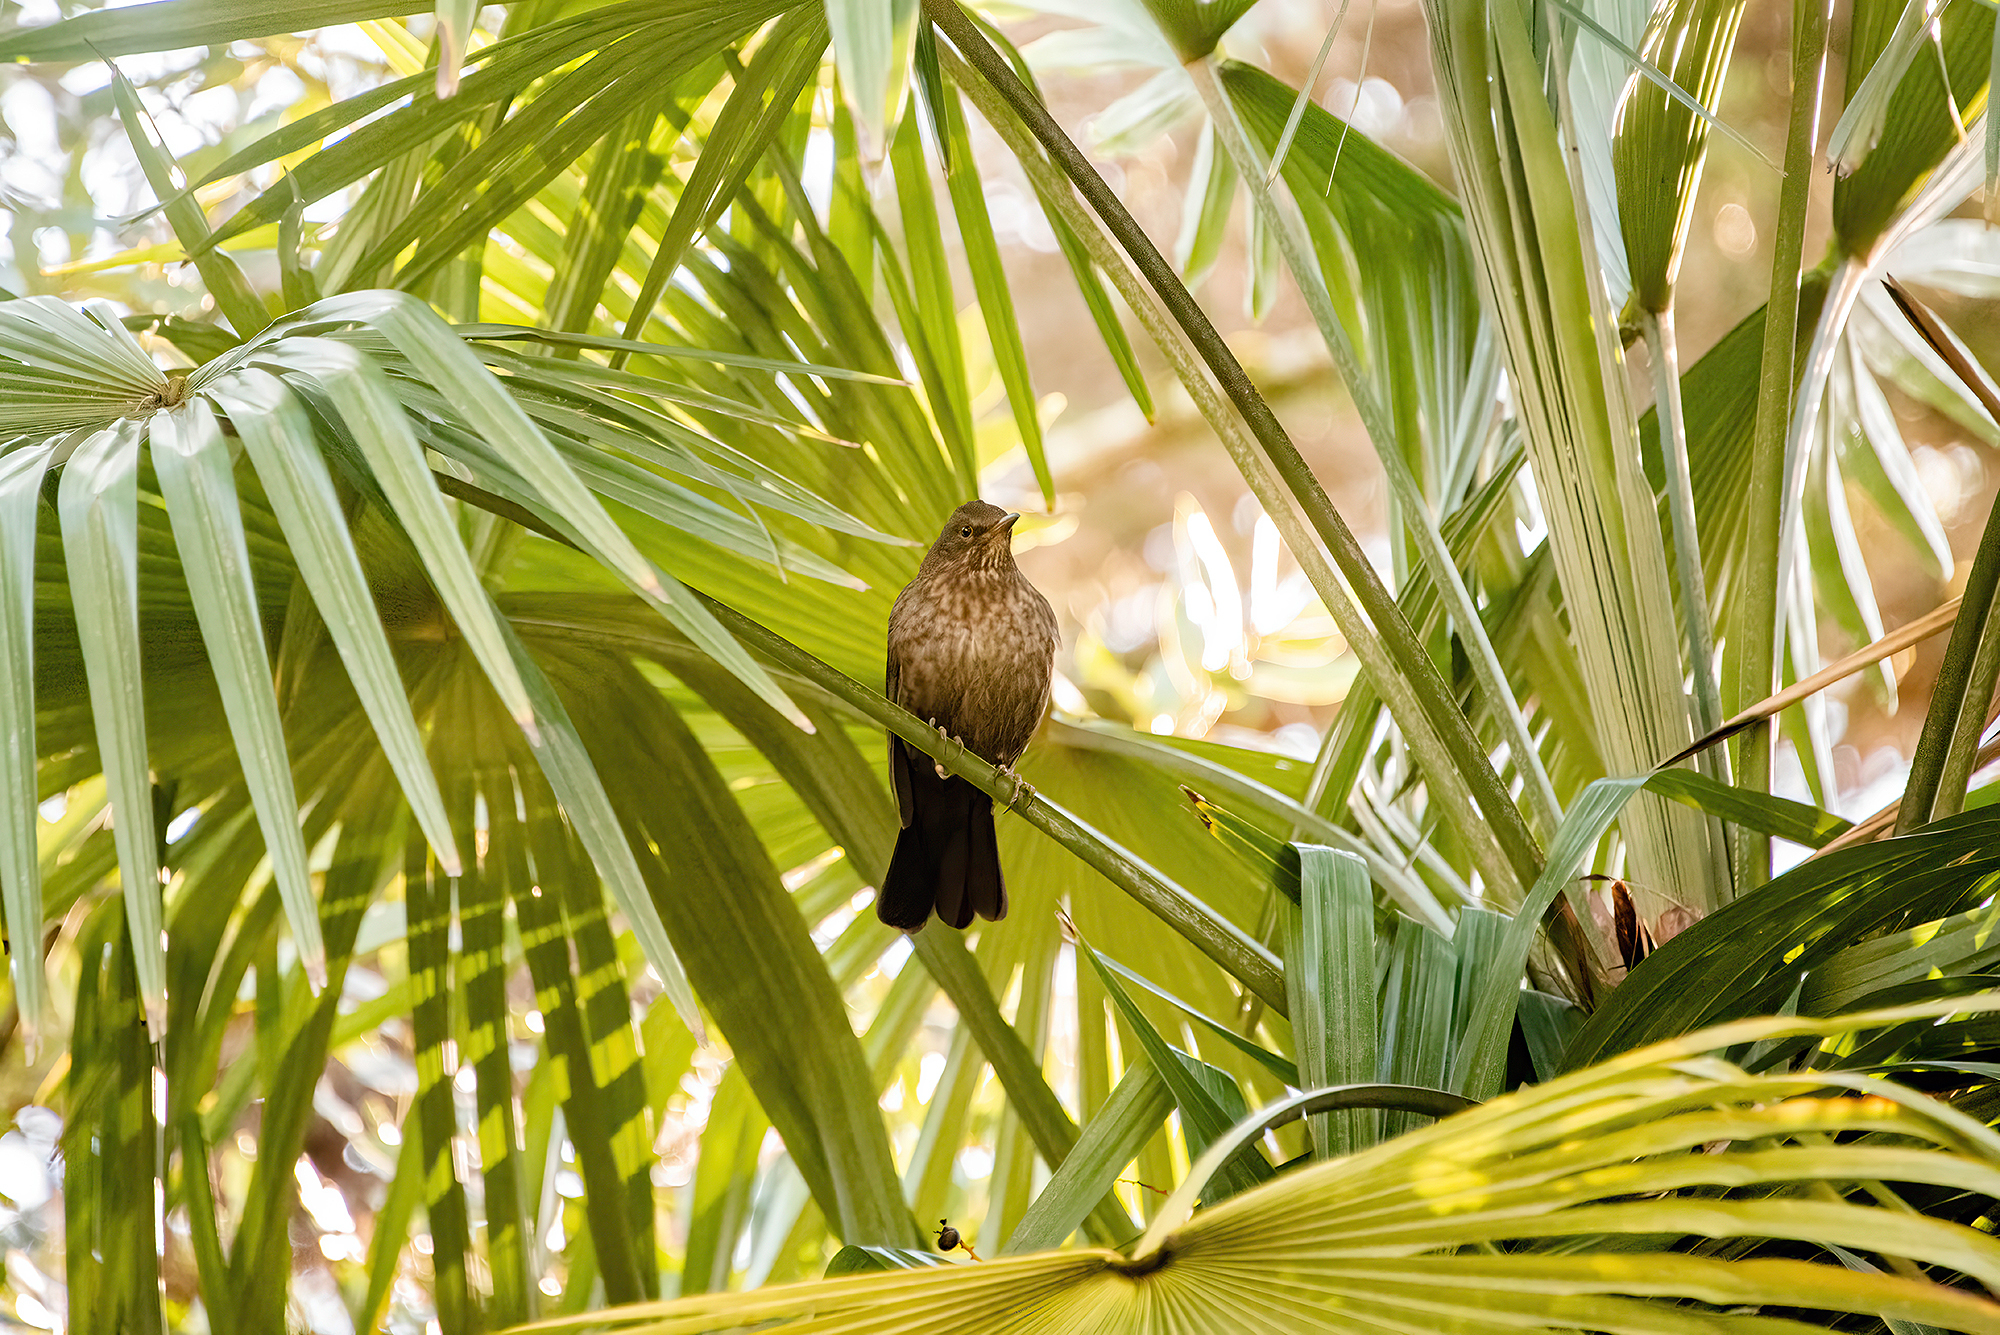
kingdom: Animalia
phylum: Chordata
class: Aves
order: Passeriformes
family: Turdidae
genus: Turdus
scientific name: Turdus merula
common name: Common blackbird
